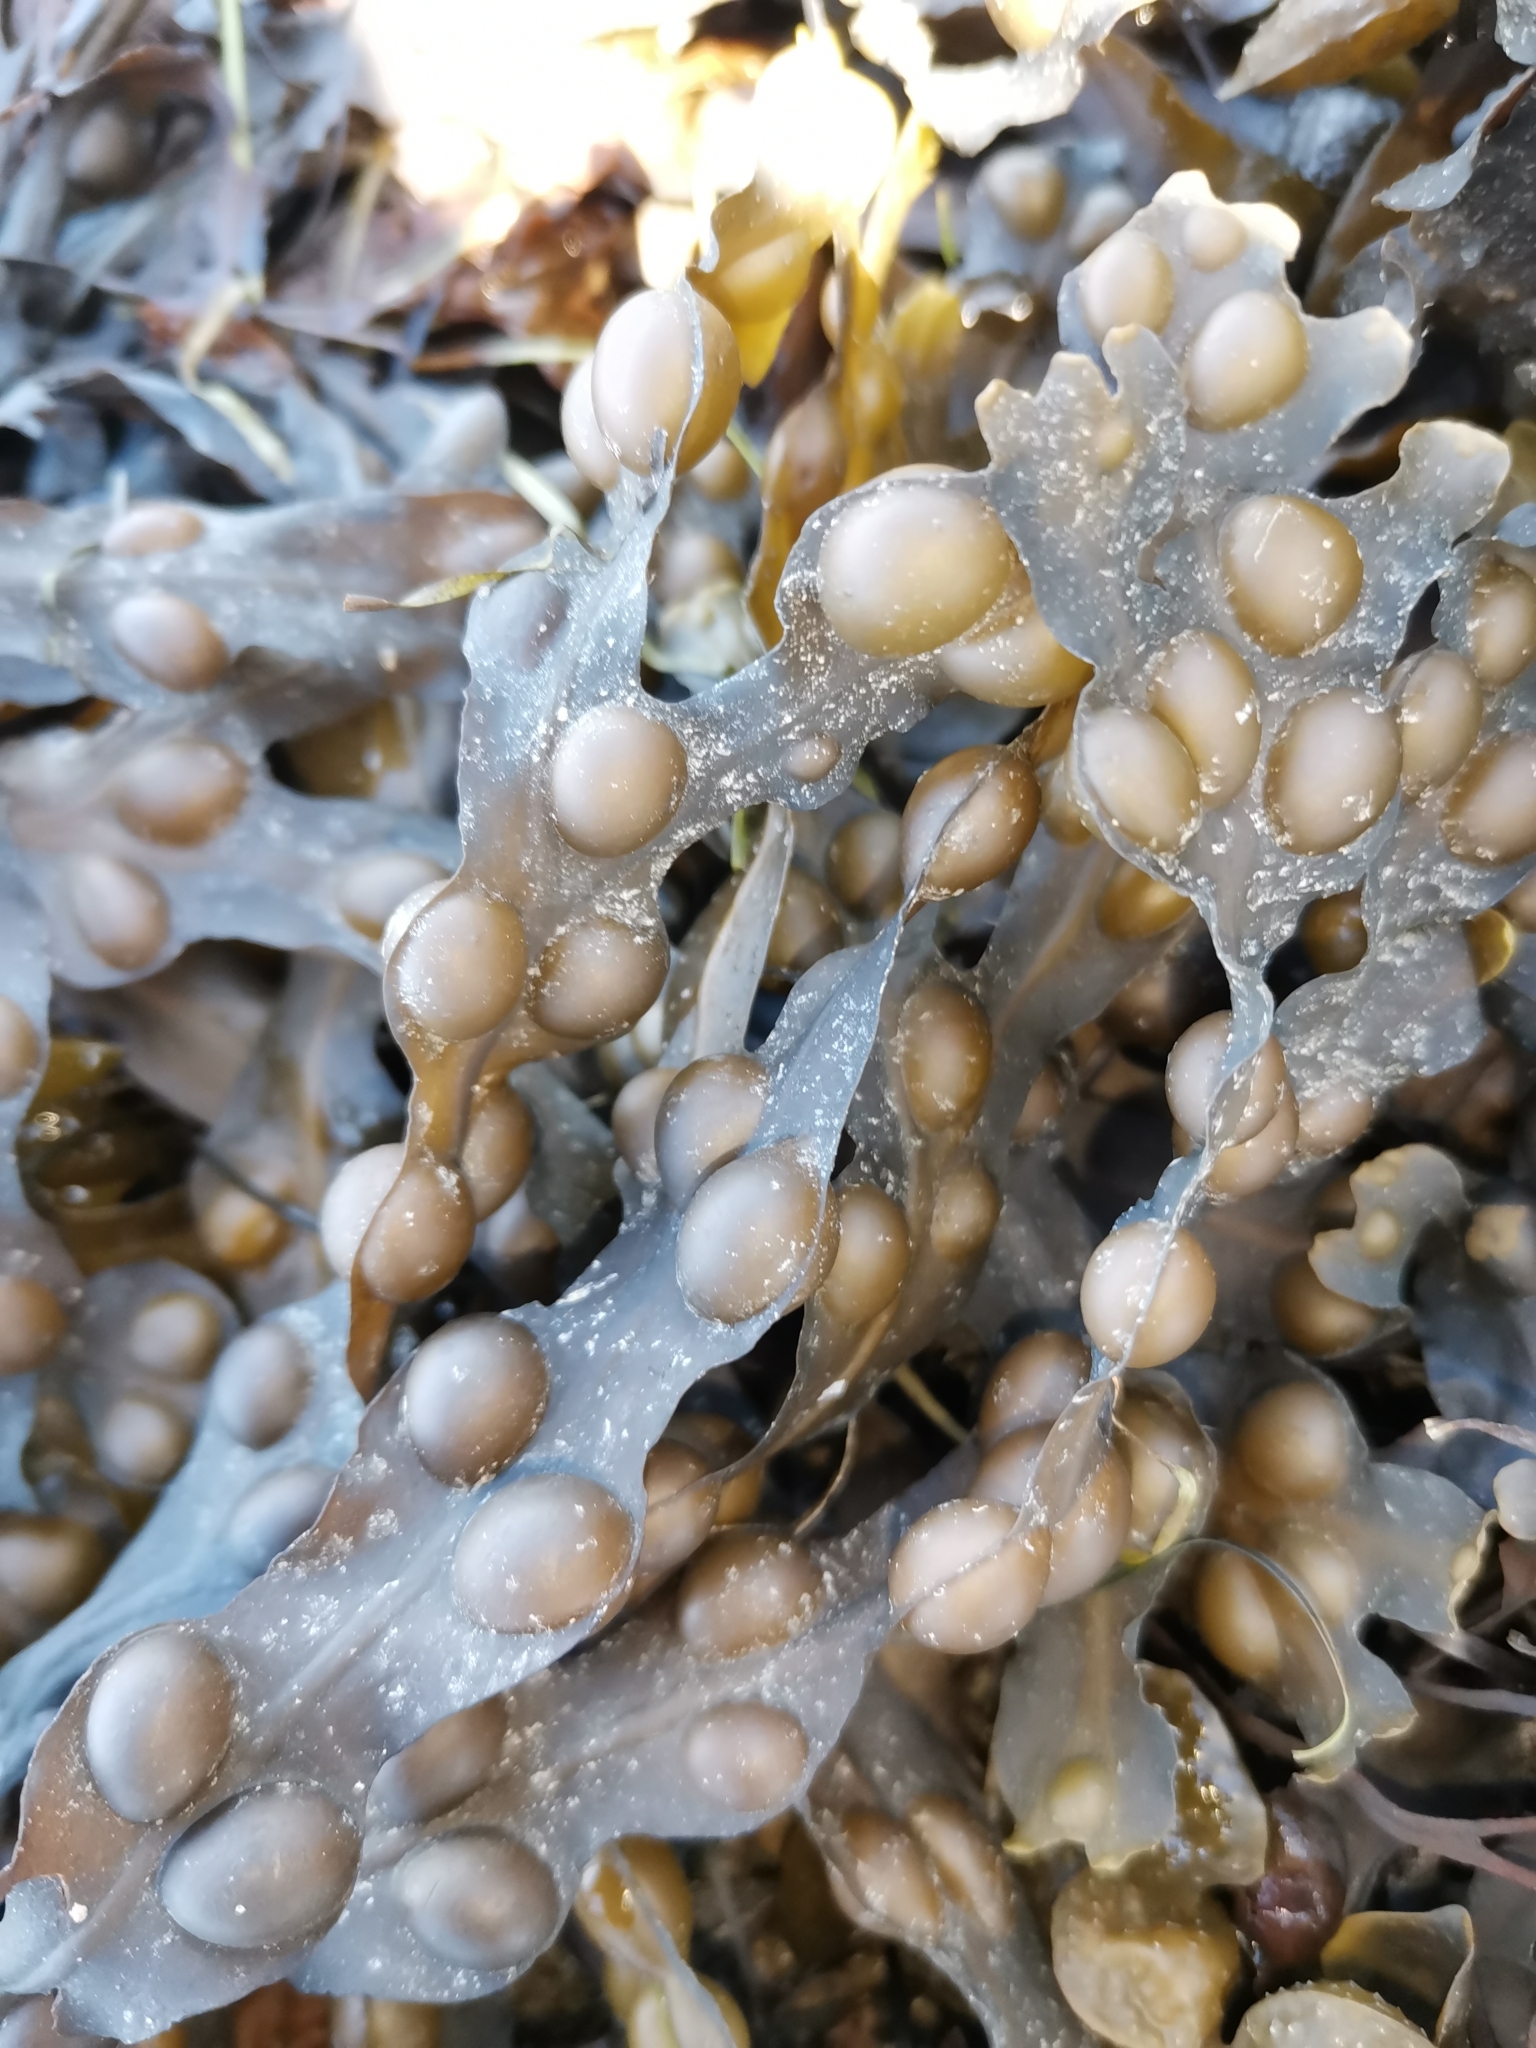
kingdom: Chromista
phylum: Ochrophyta
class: Phaeophyceae
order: Fucales
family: Fucaceae
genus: Fucus
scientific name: Fucus vesiculosus
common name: Bladder wrack
